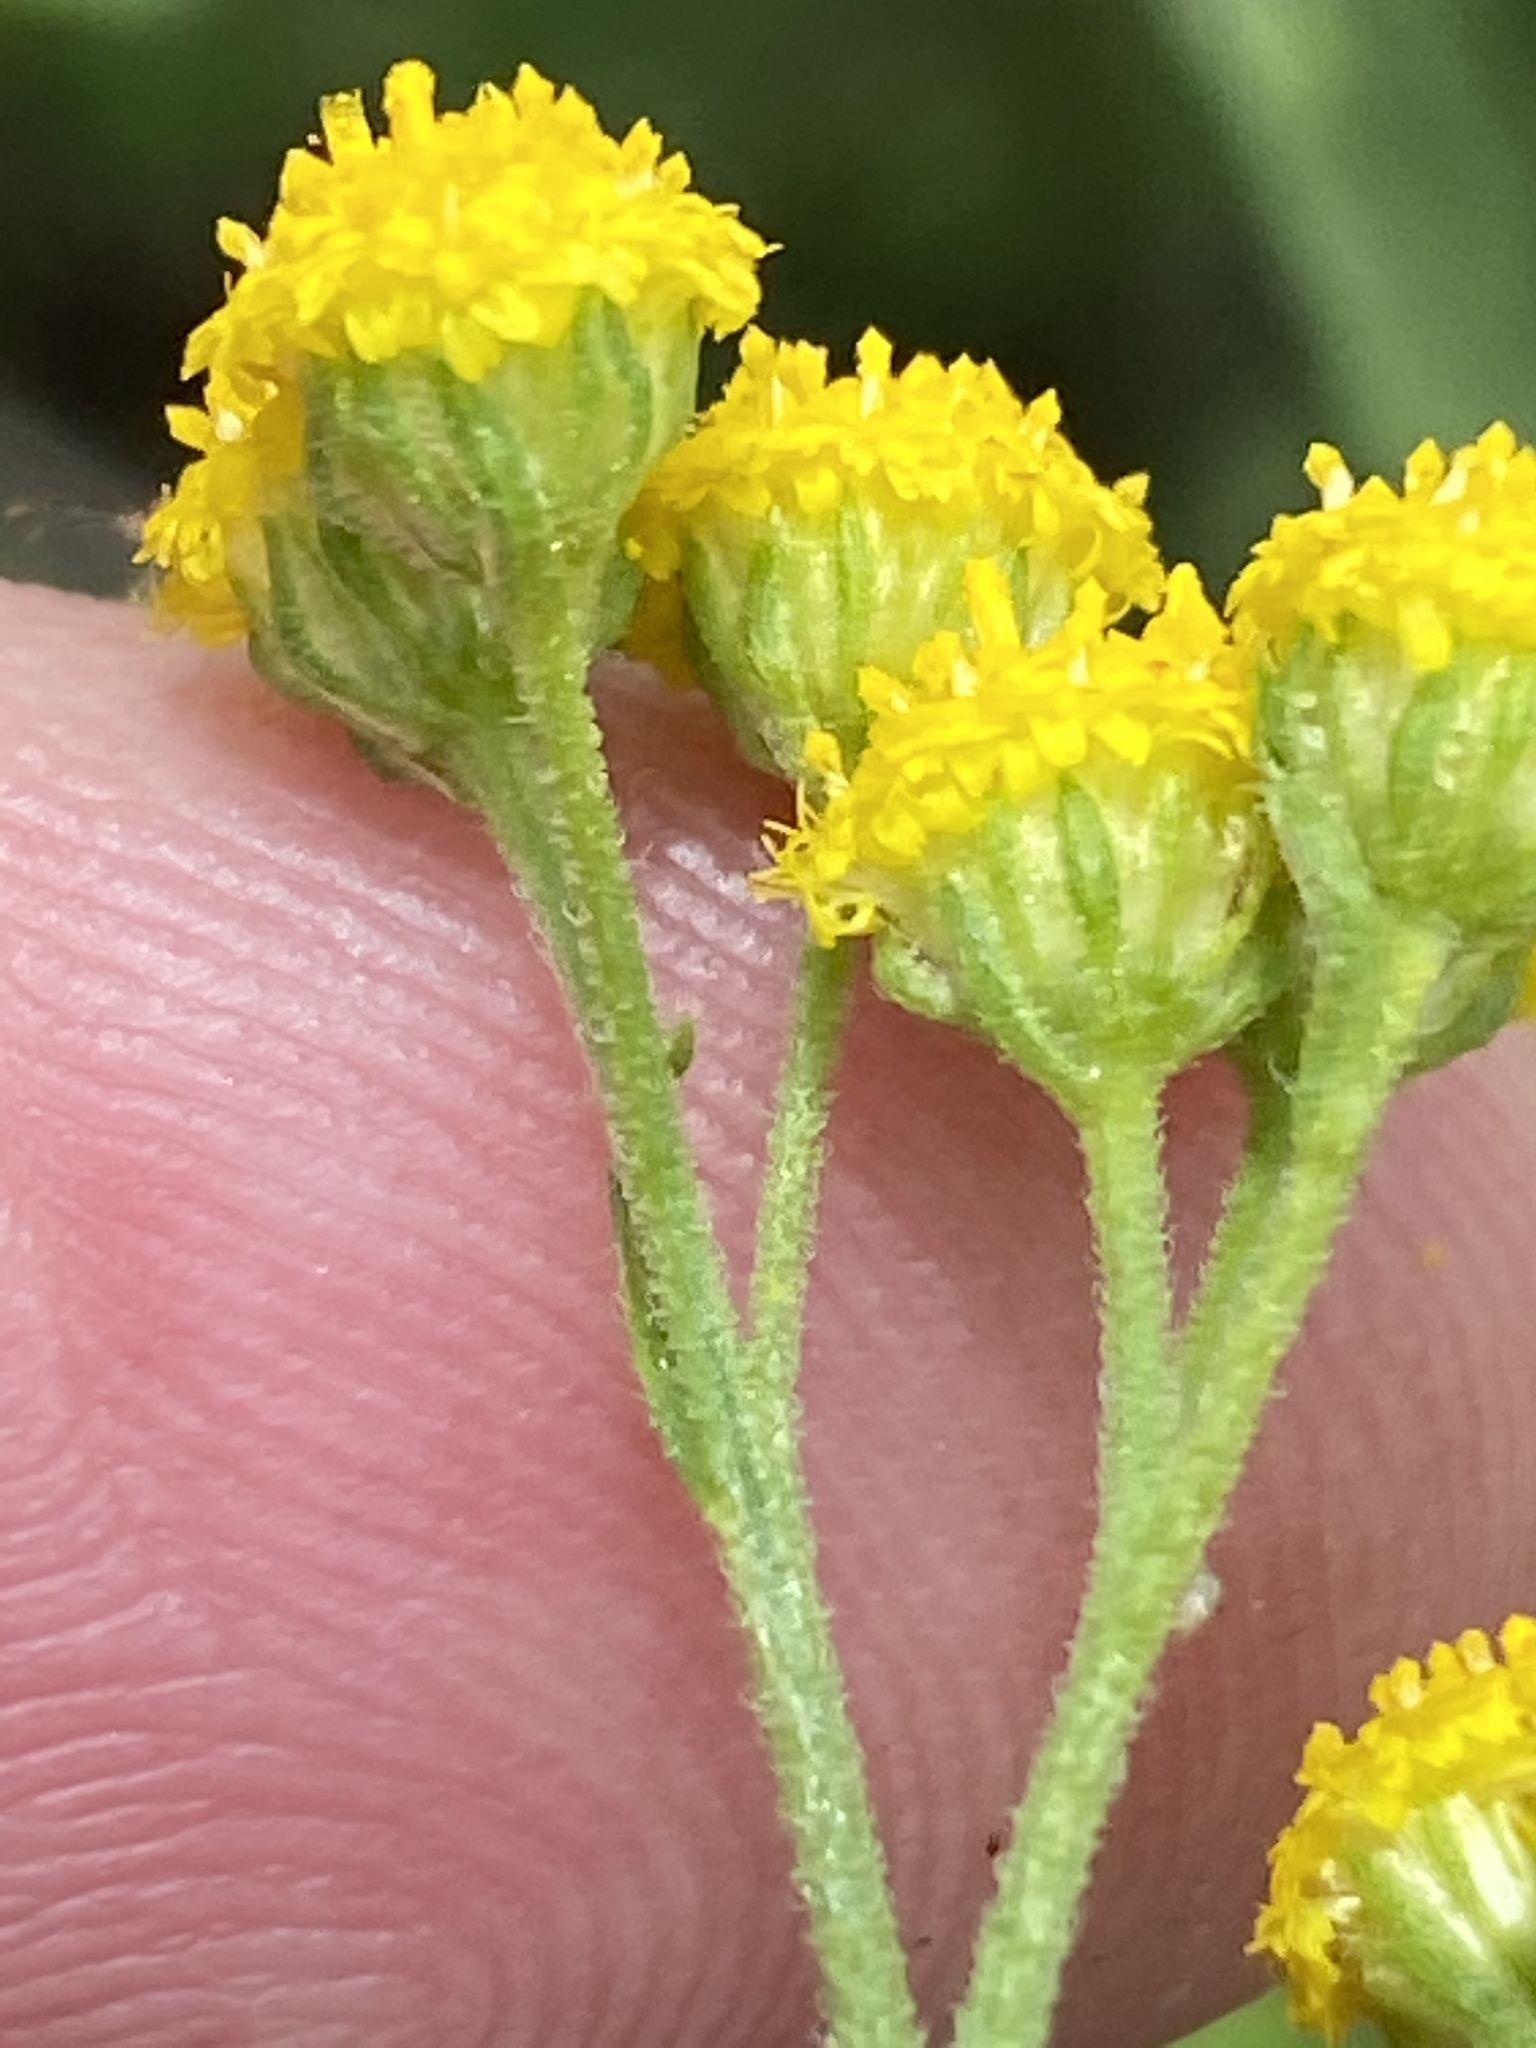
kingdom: Plantae
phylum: Tracheophyta
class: Magnoliopsida
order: Asterales
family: Asteraceae
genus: Nidorella
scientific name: Nidorella resedifolia
